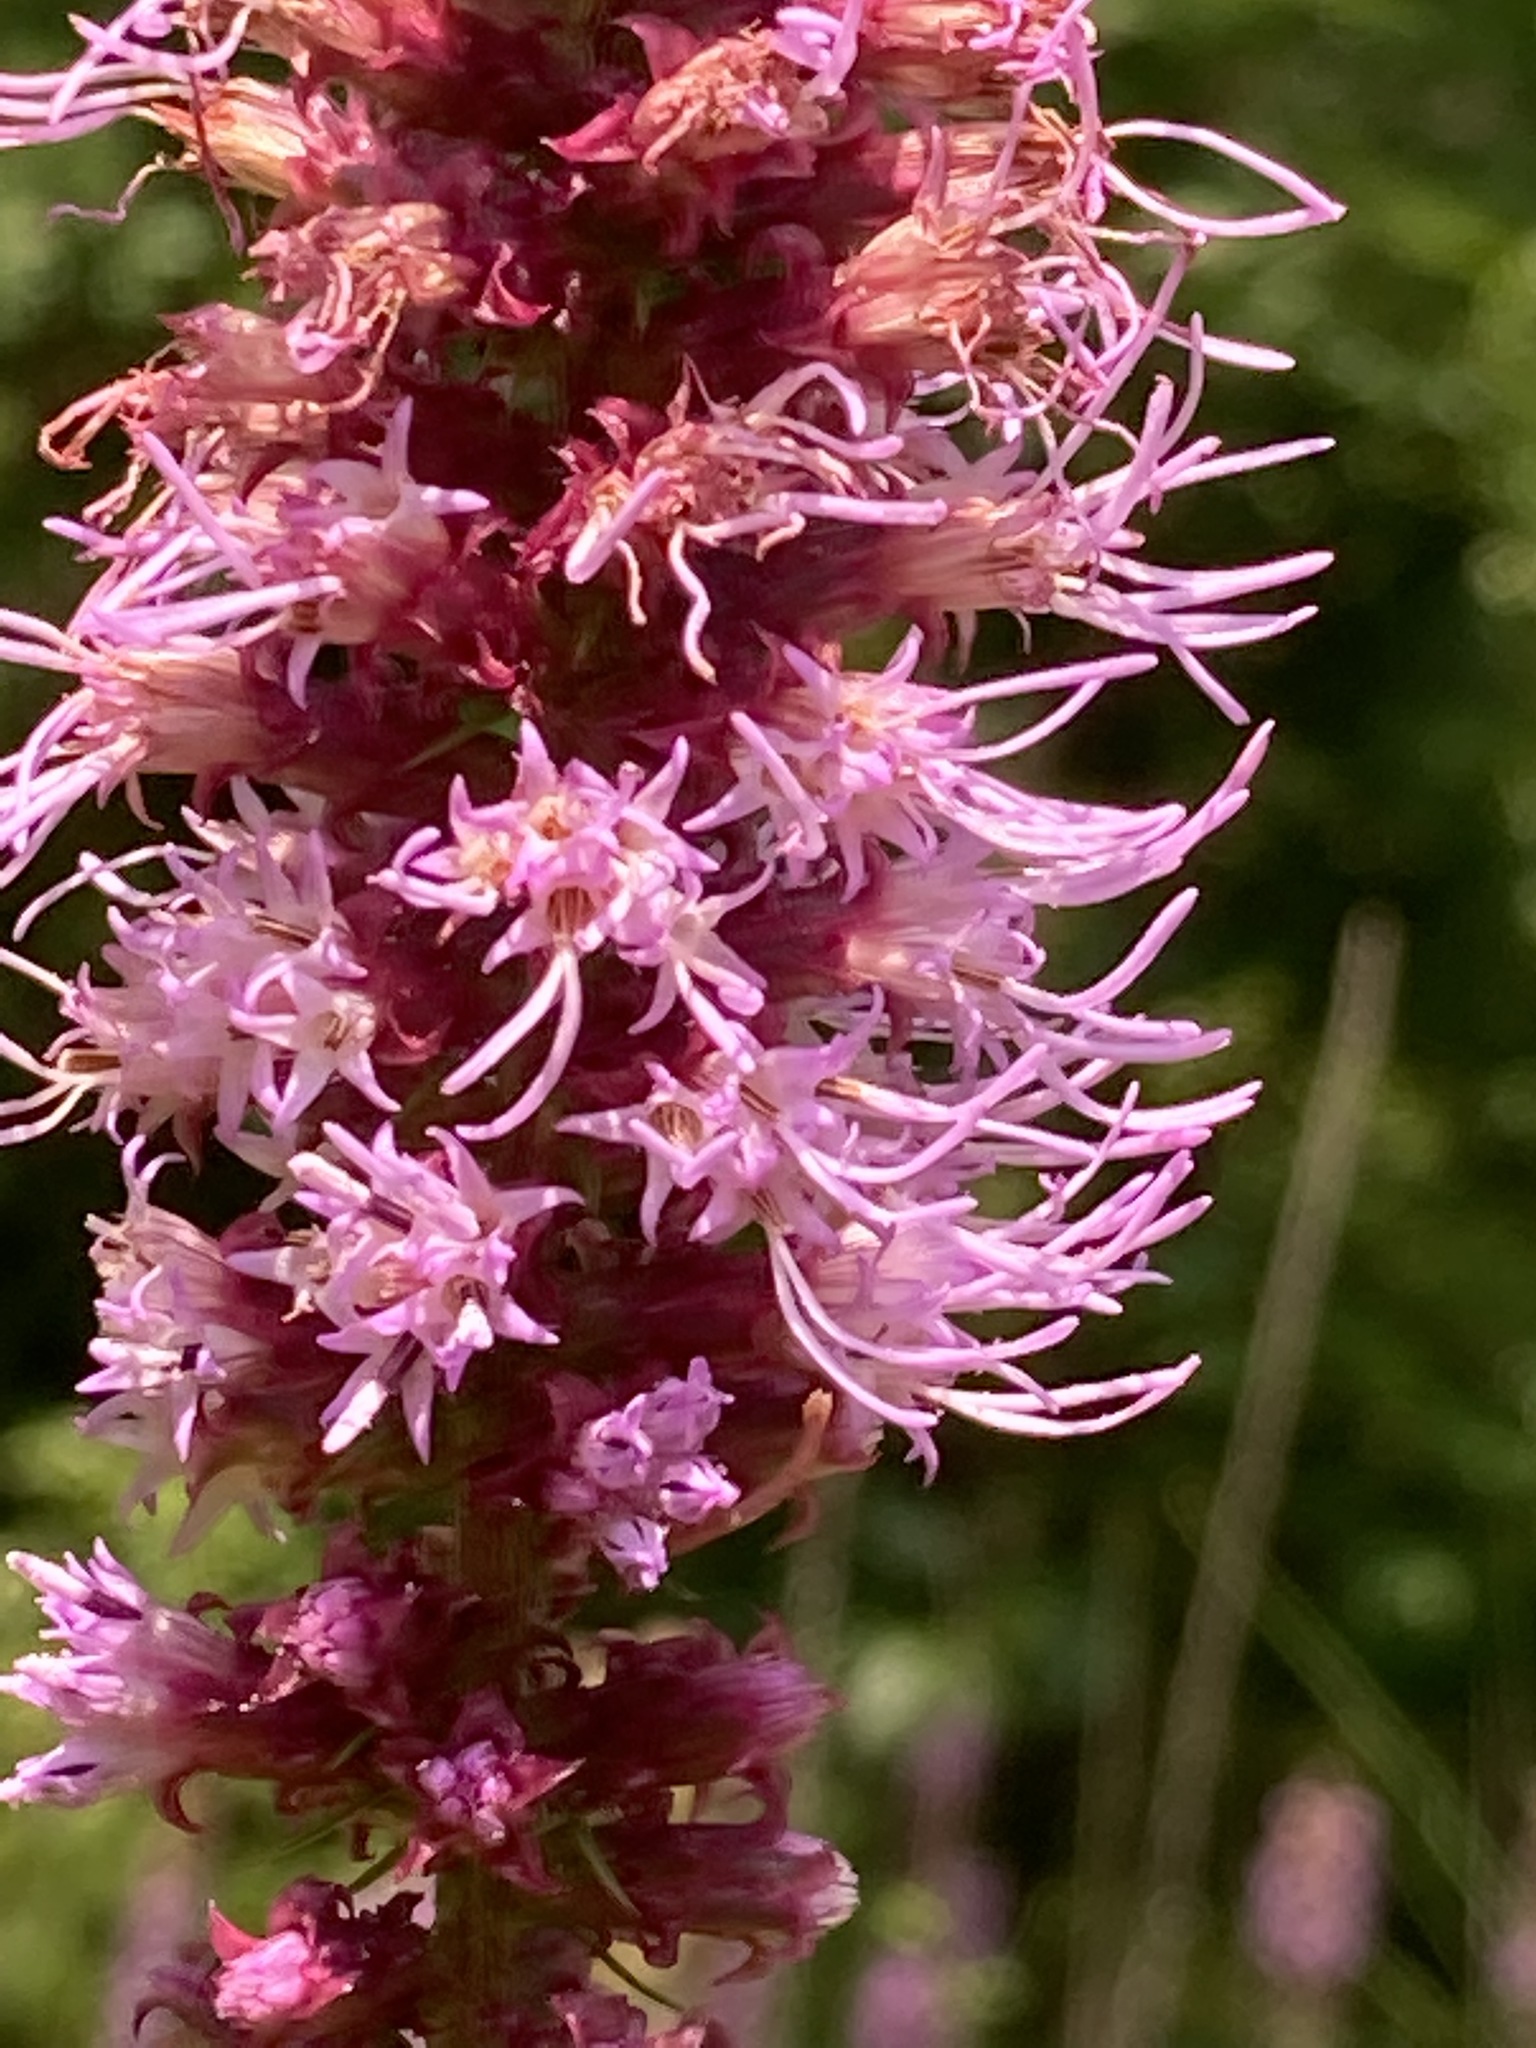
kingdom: Plantae
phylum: Tracheophyta
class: Magnoliopsida
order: Asterales
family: Asteraceae
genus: Liatris
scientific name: Liatris pycnostachya
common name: Cattail gayfeather
